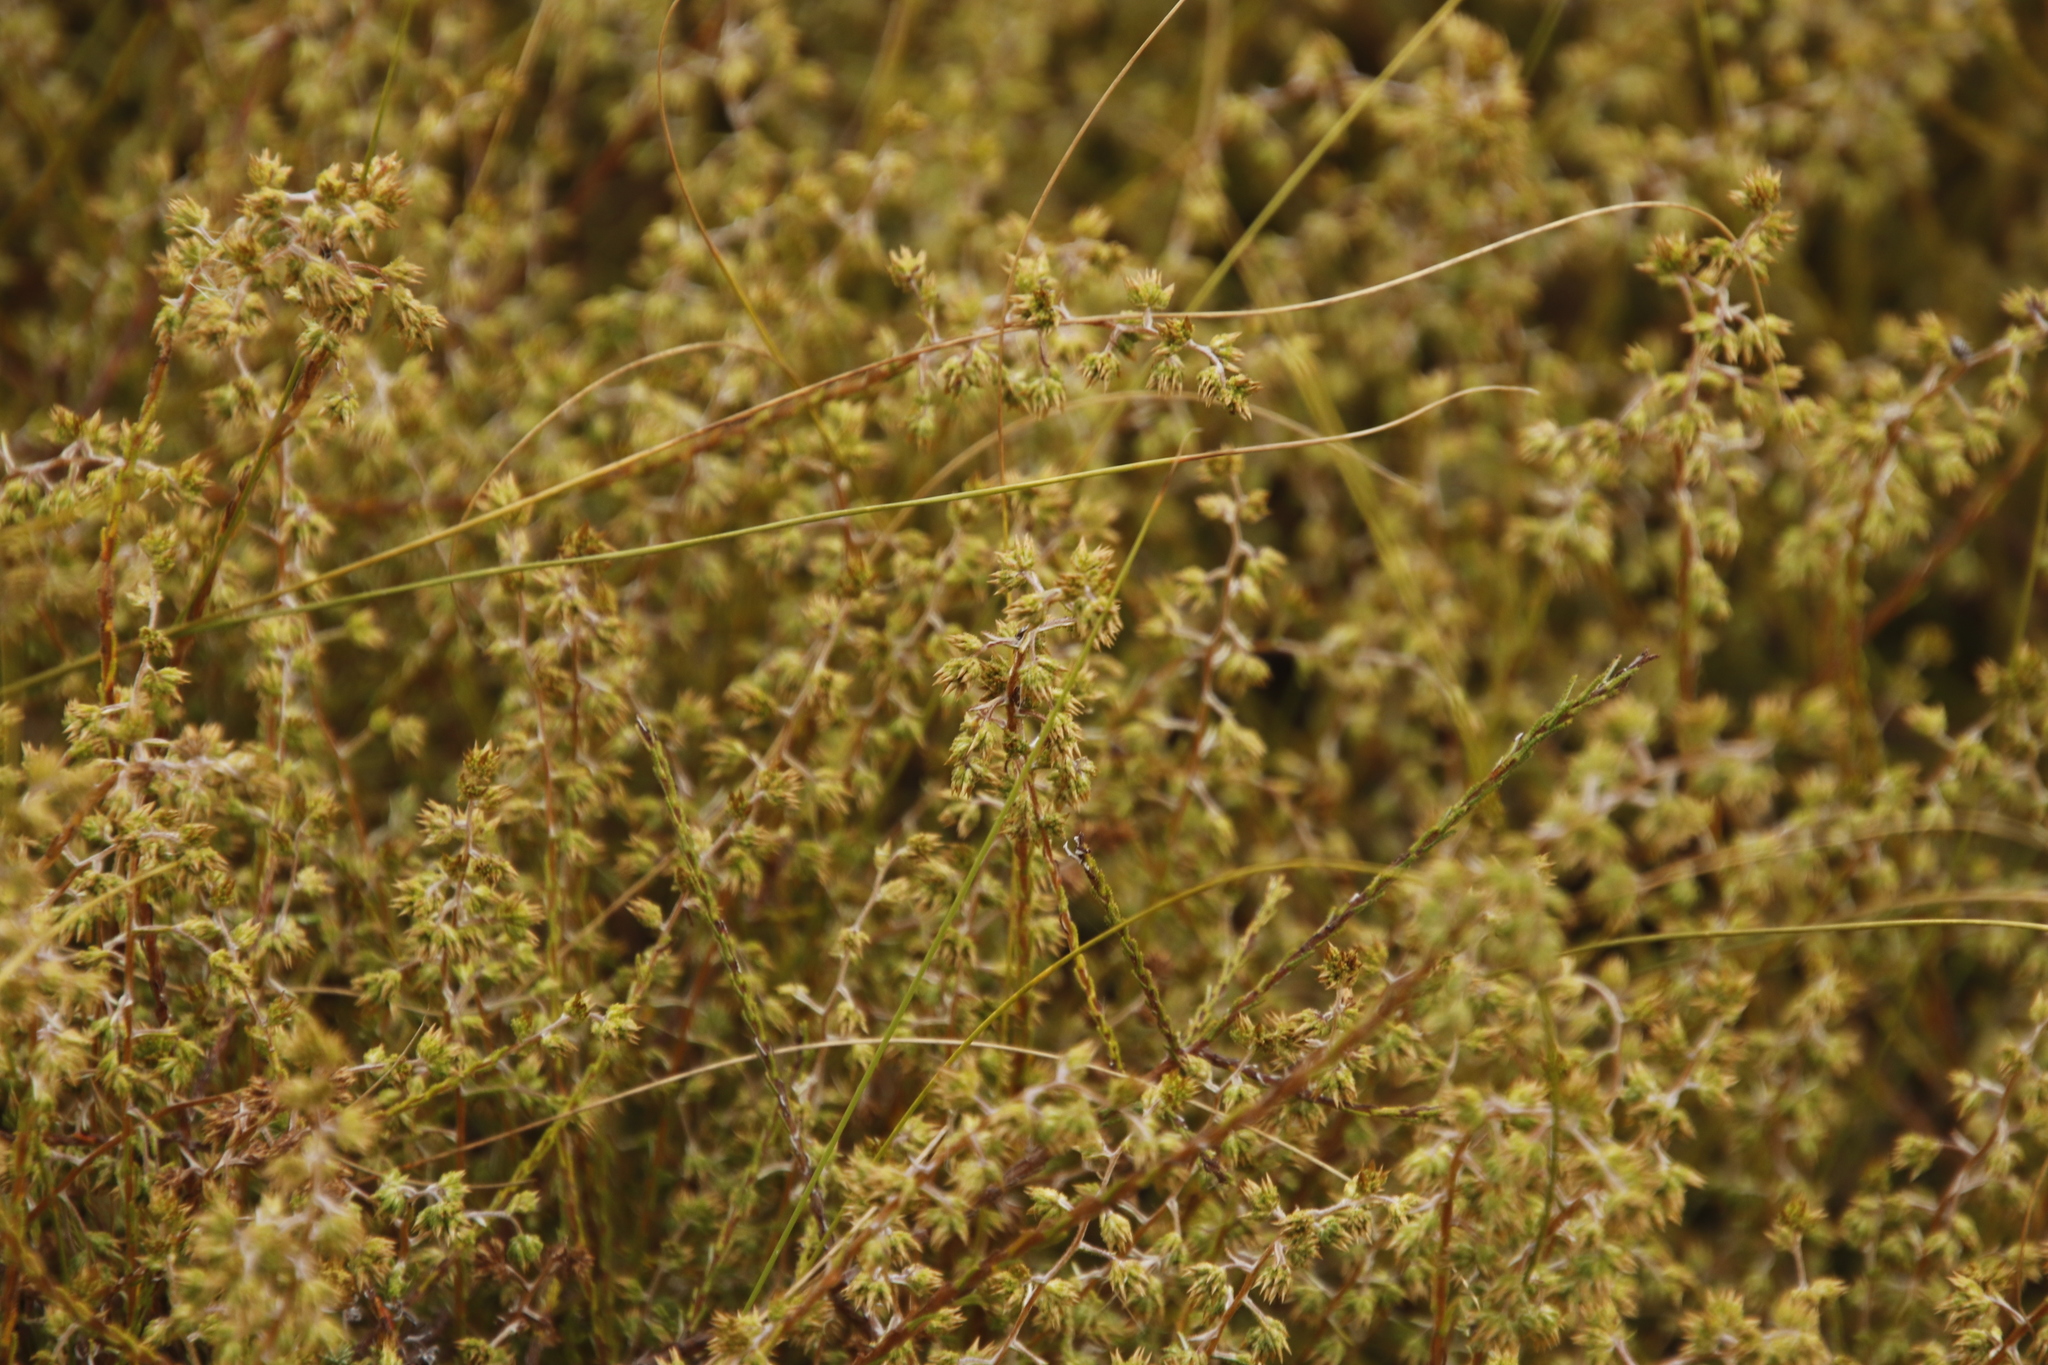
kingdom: Plantae
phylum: Tracheophyta
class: Magnoliopsida
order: Asterales
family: Asteraceae
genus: Myrovernix
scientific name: Myrovernix scaber
